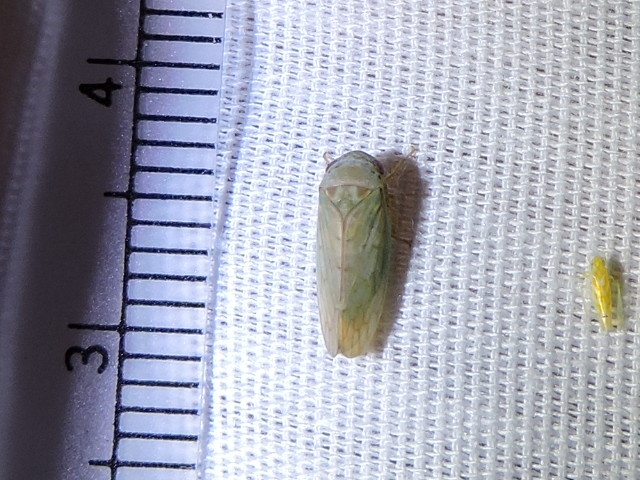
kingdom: Animalia
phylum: Arthropoda
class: Insecta
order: Hemiptera
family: Cicadellidae
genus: Polana
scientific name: Polana quadrinotata
